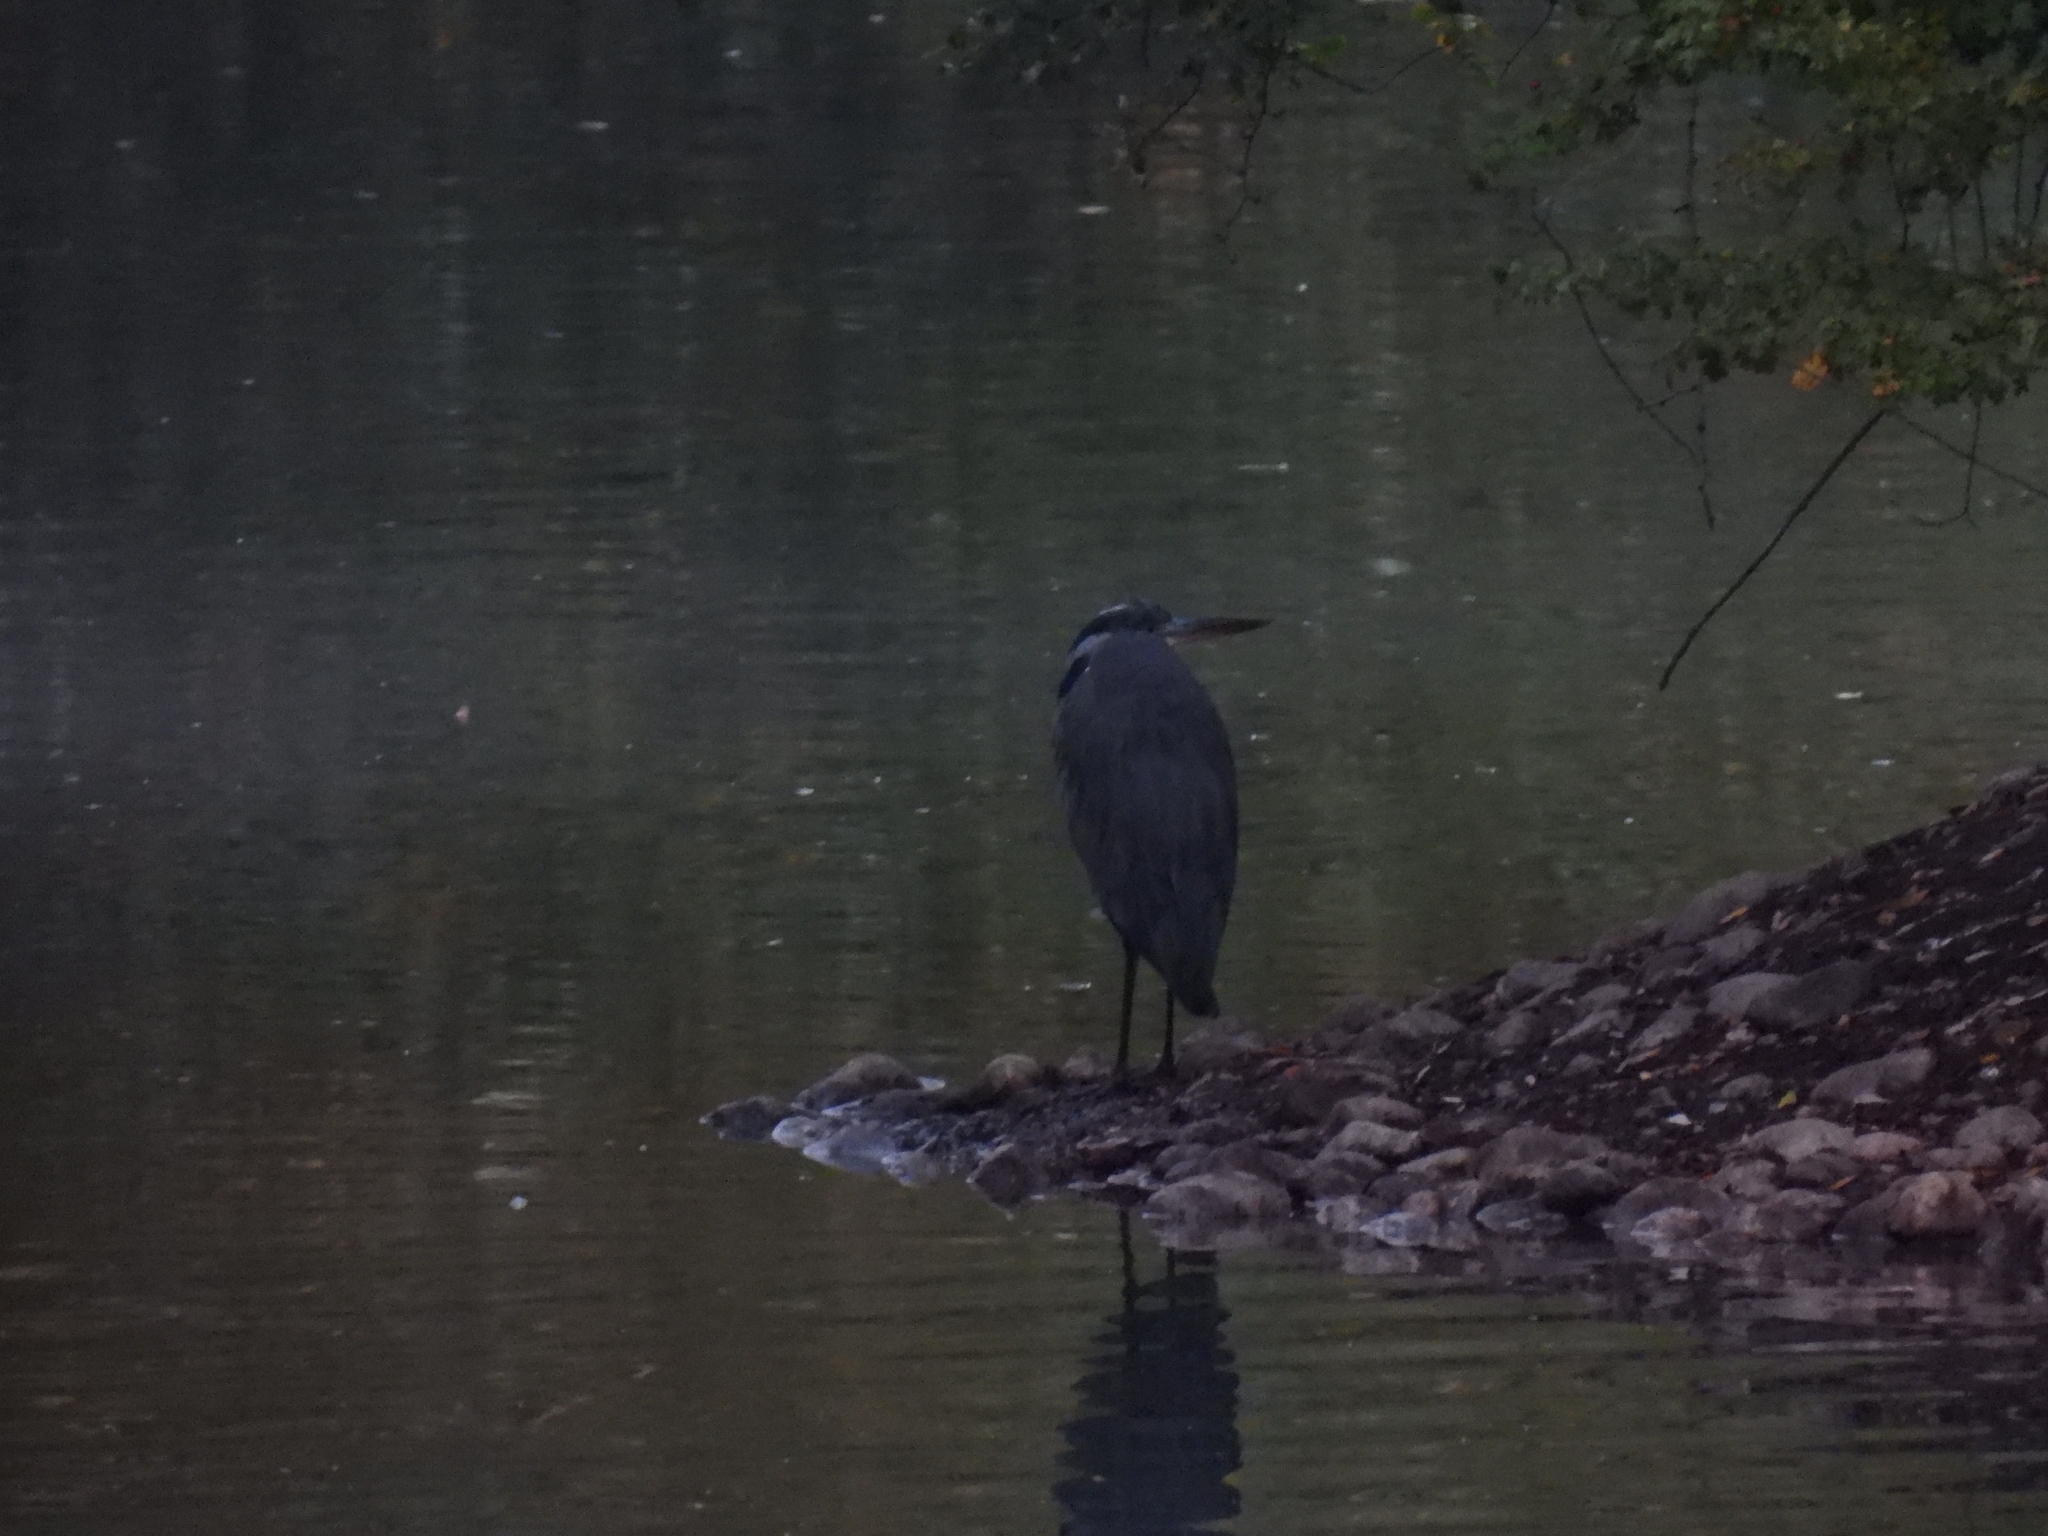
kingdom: Animalia
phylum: Chordata
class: Aves
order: Pelecaniformes
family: Ardeidae
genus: Ardea
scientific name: Ardea cinerea
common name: Grey heron
